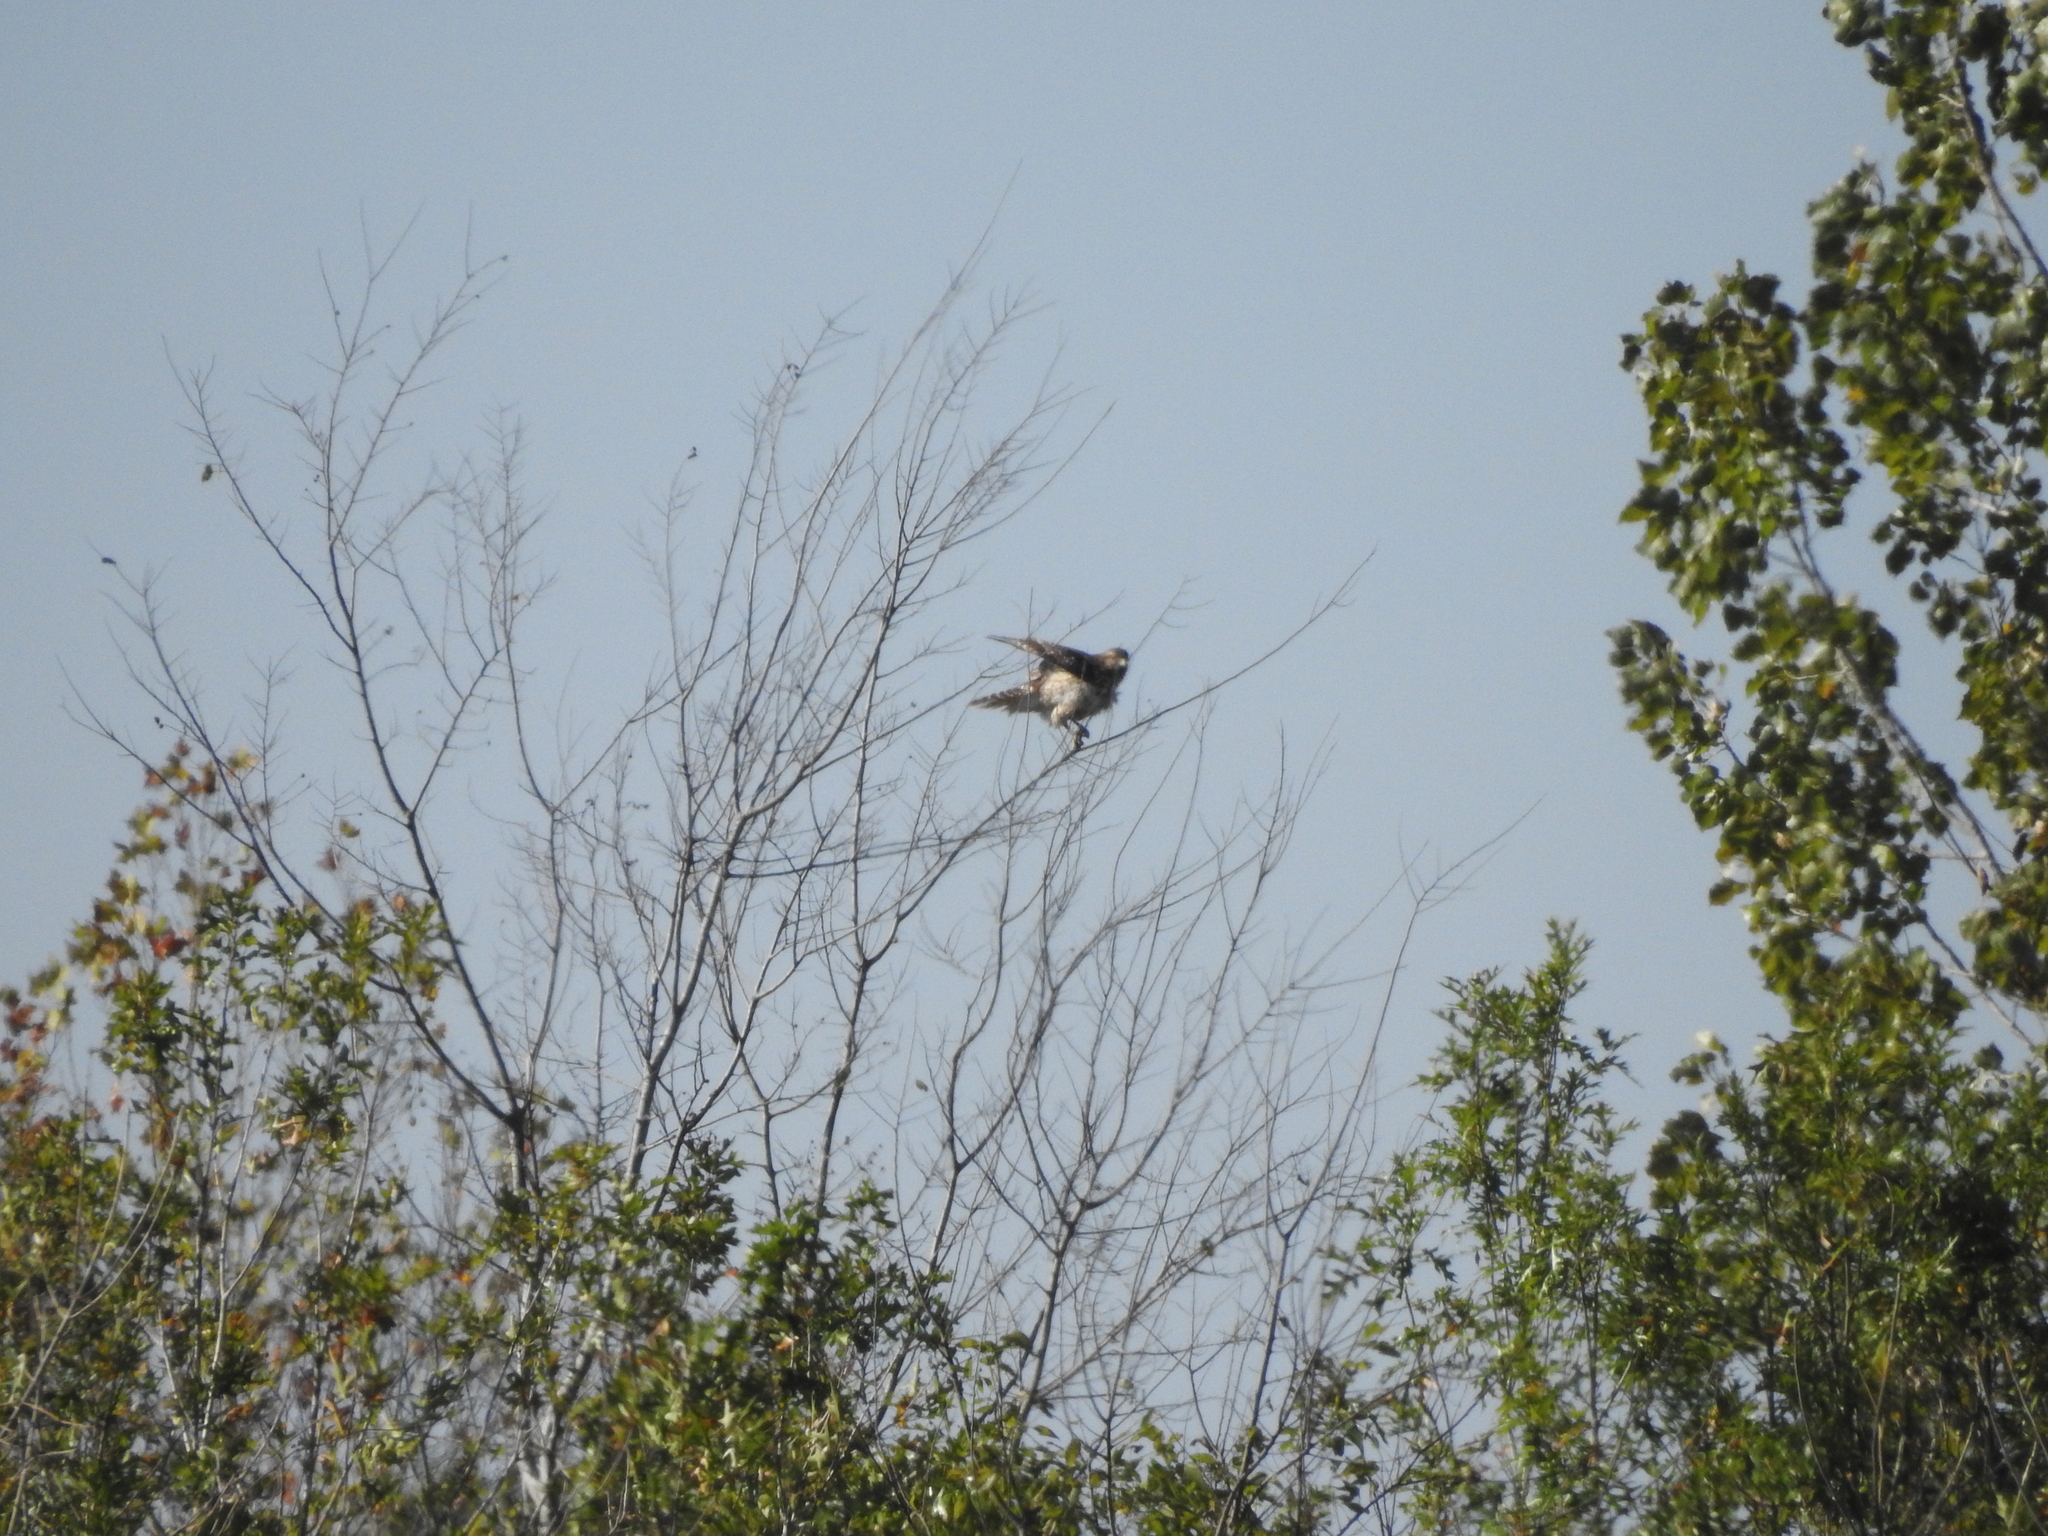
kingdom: Animalia
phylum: Chordata
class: Aves
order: Accipitriformes
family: Accipitridae
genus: Buteo
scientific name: Buteo lineatus
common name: Red-shouldered hawk
